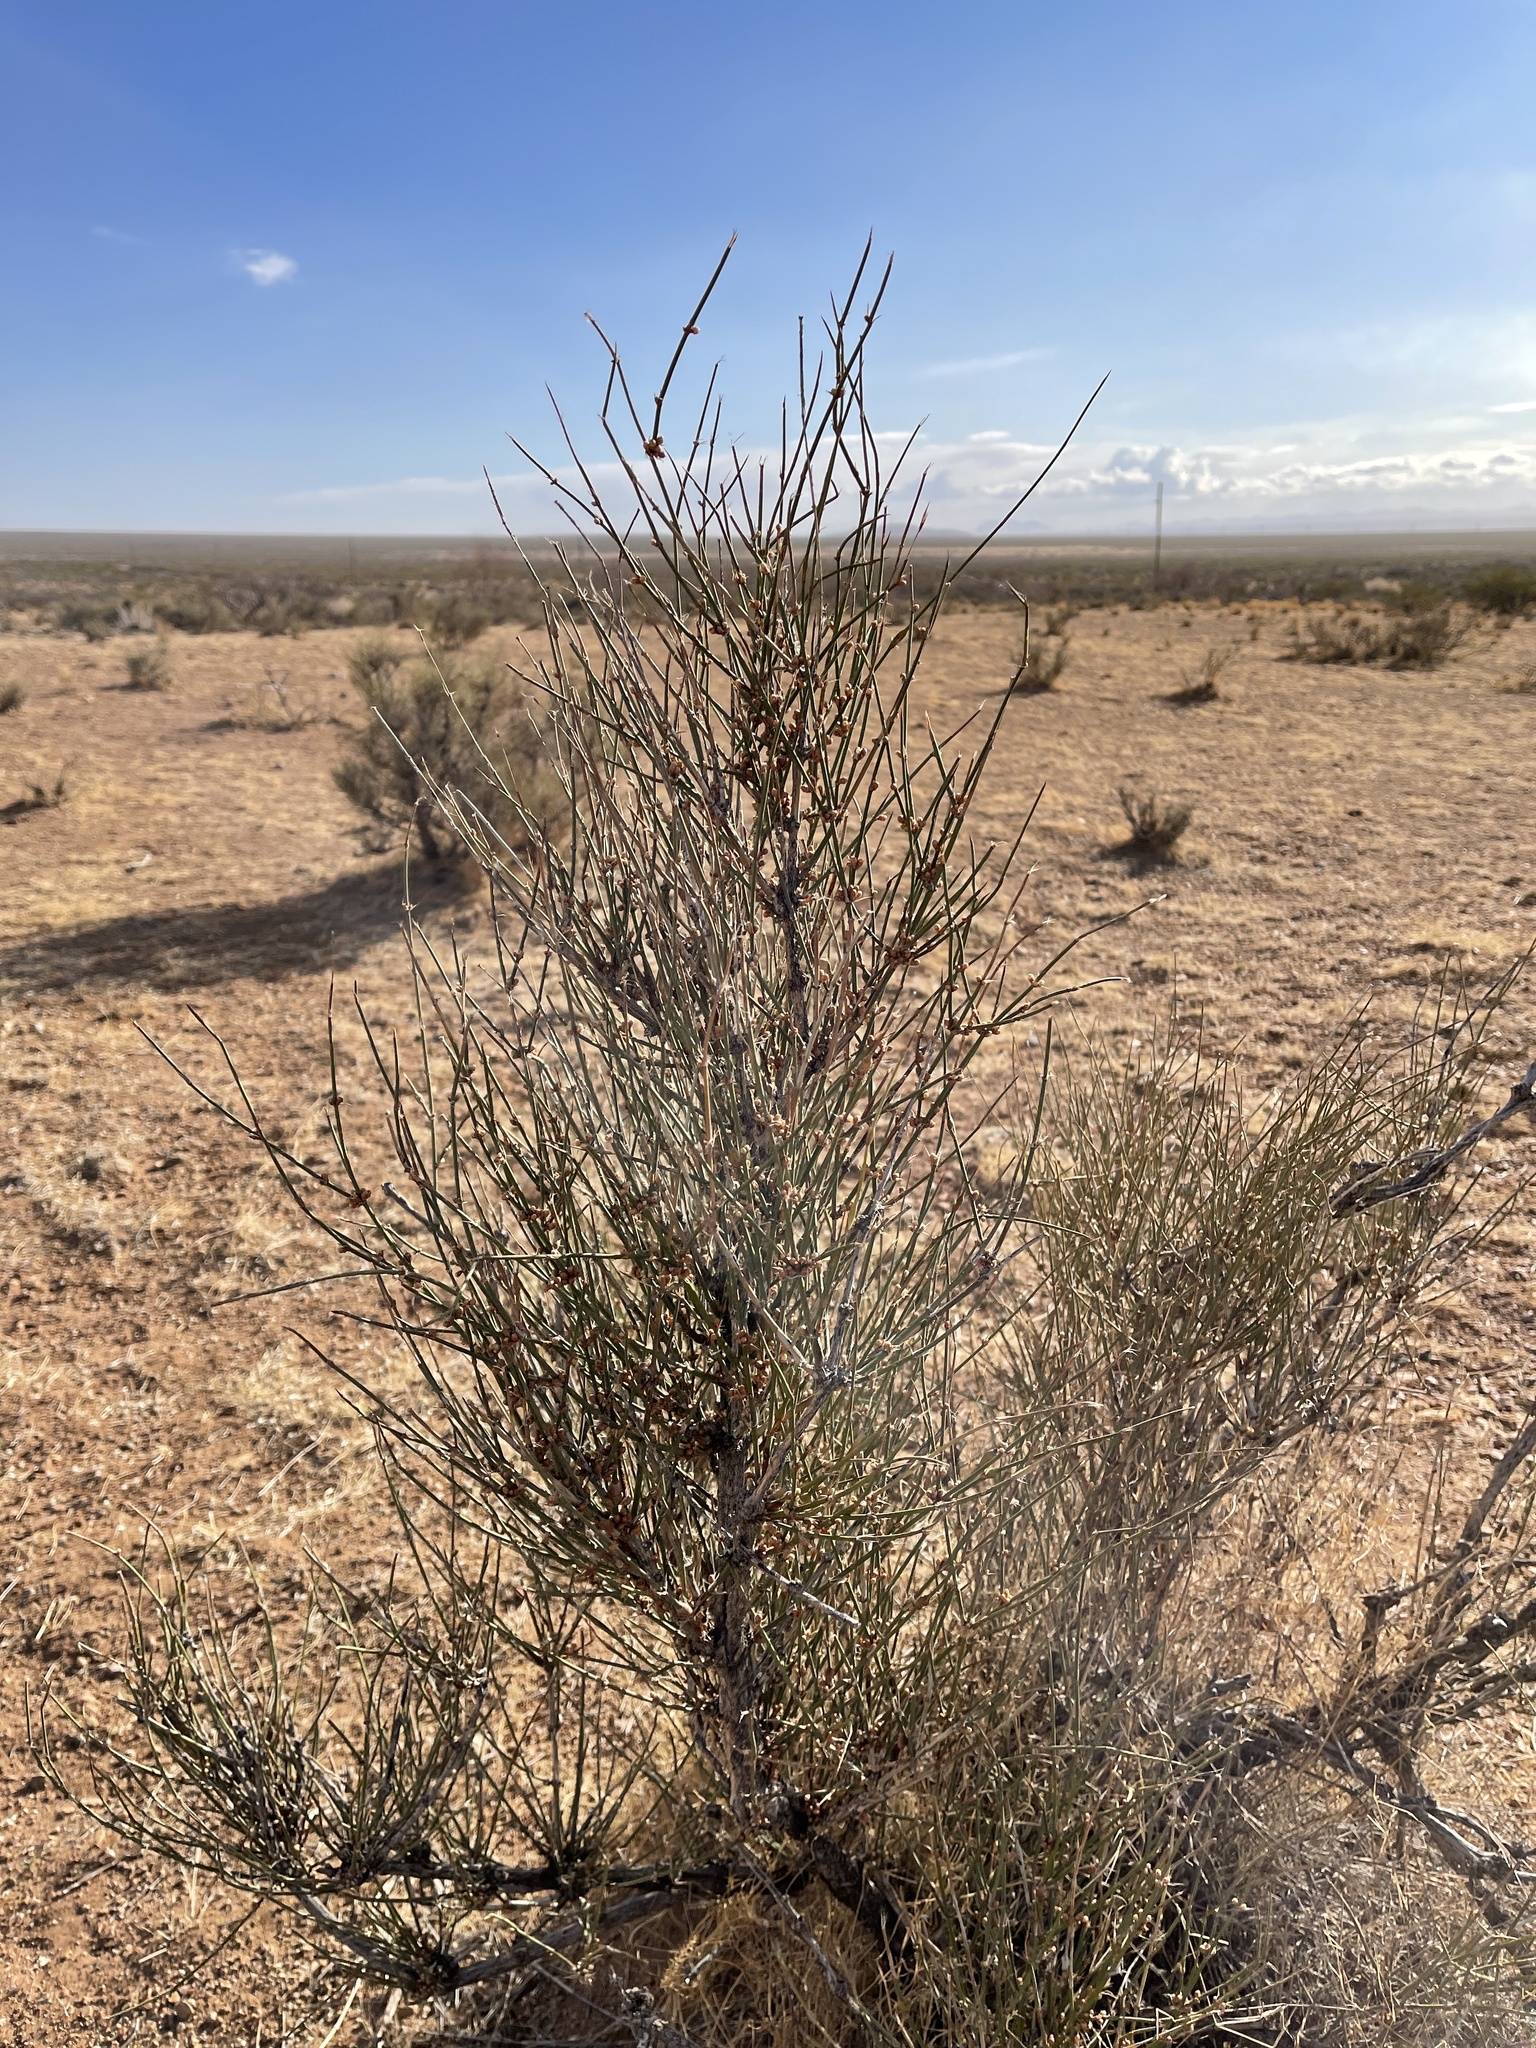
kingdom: Plantae
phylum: Tracheophyta
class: Gnetopsida
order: Ephedrales
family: Ephedraceae
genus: Ephedra
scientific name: Ephedra trifurca
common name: Mexican-tea
